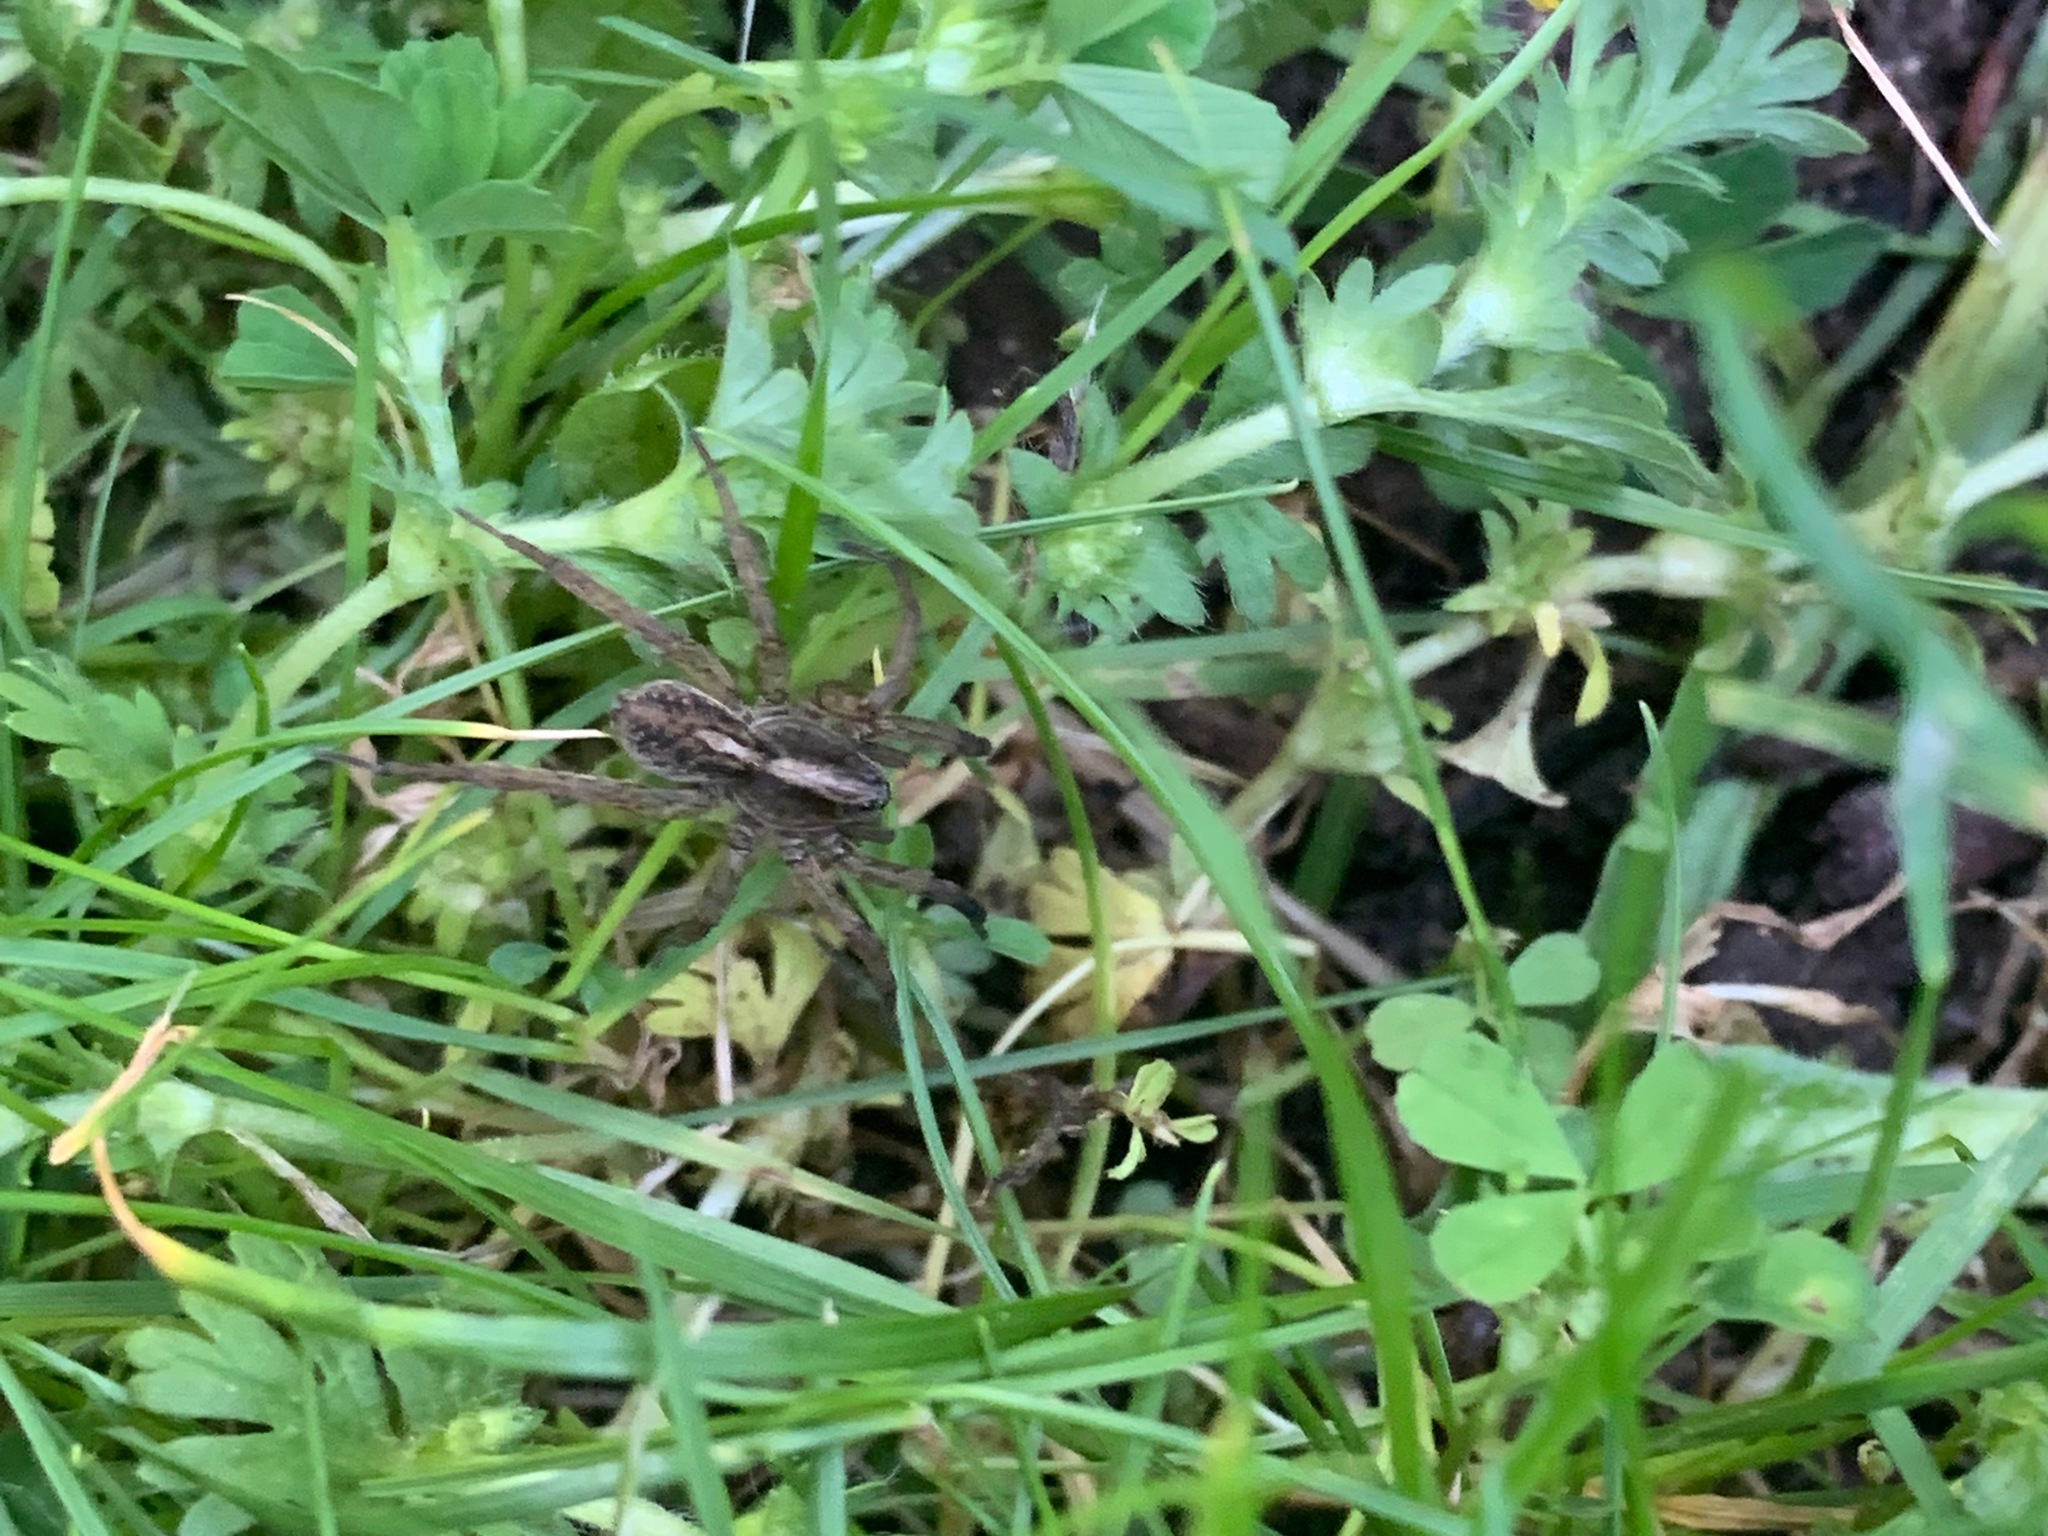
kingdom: Animalia
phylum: Arthropoda
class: Arachnida
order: Araneae
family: Lycosidae
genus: Trochosa
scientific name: Trochosa ruricola
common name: Spider
